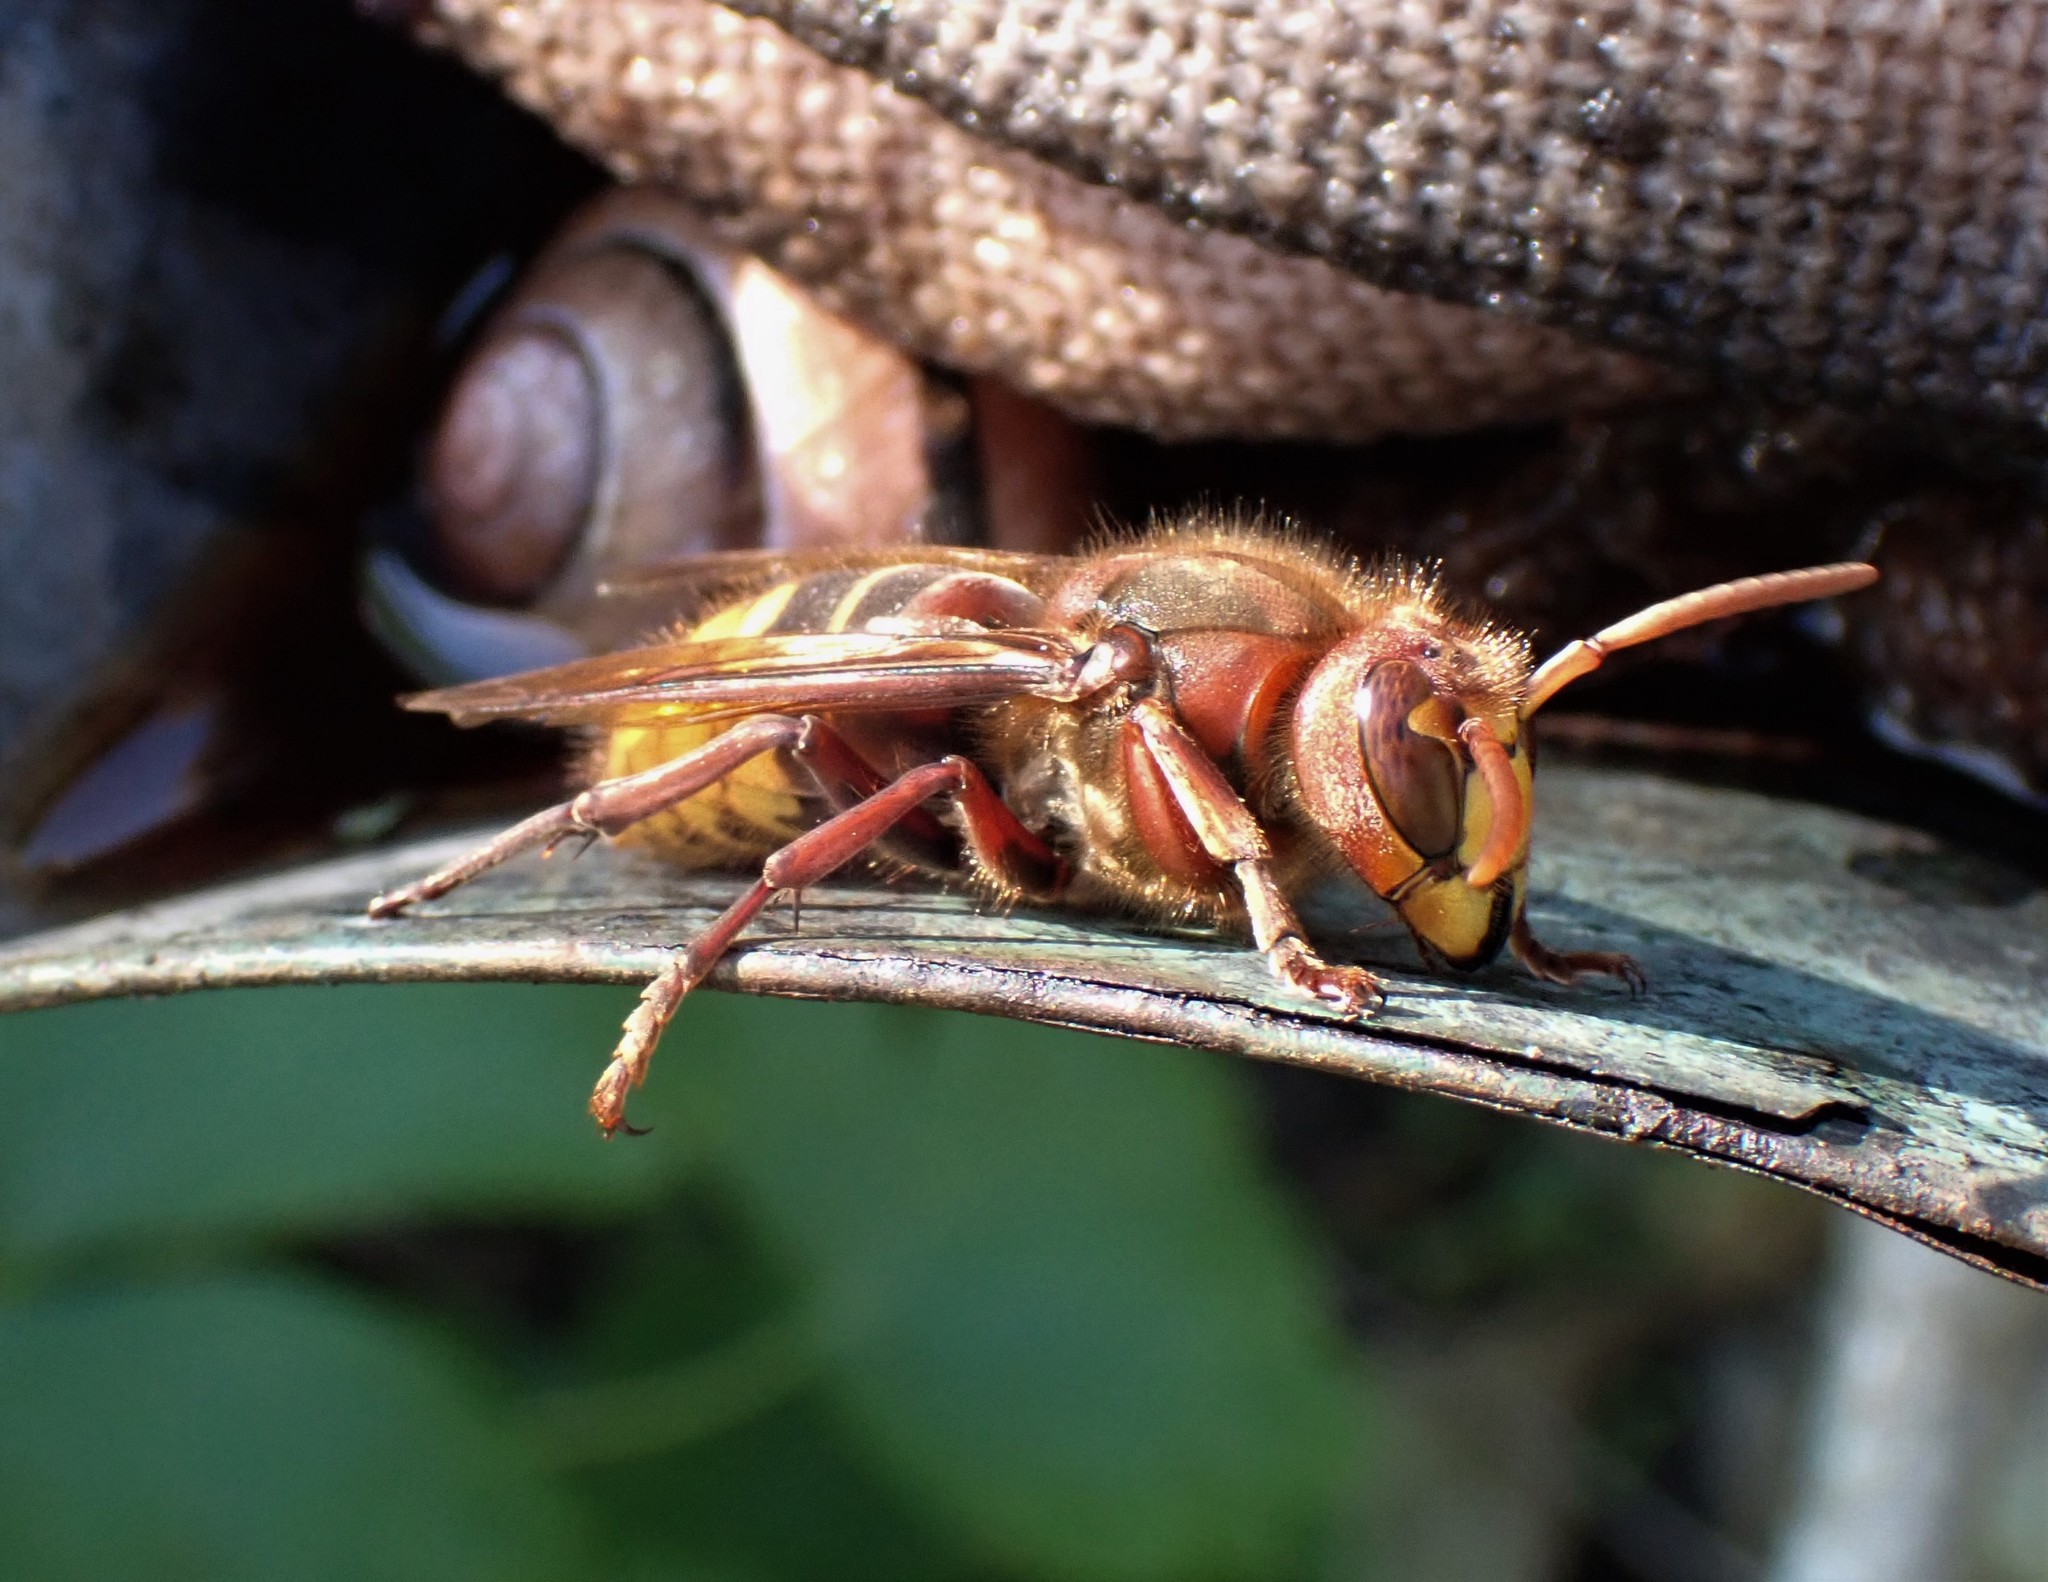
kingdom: Animalia
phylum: Arthropoda
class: Insecta
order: Hymenoptera
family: Vespidae
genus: Vespa
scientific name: Vespa crabro
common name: Hornet
